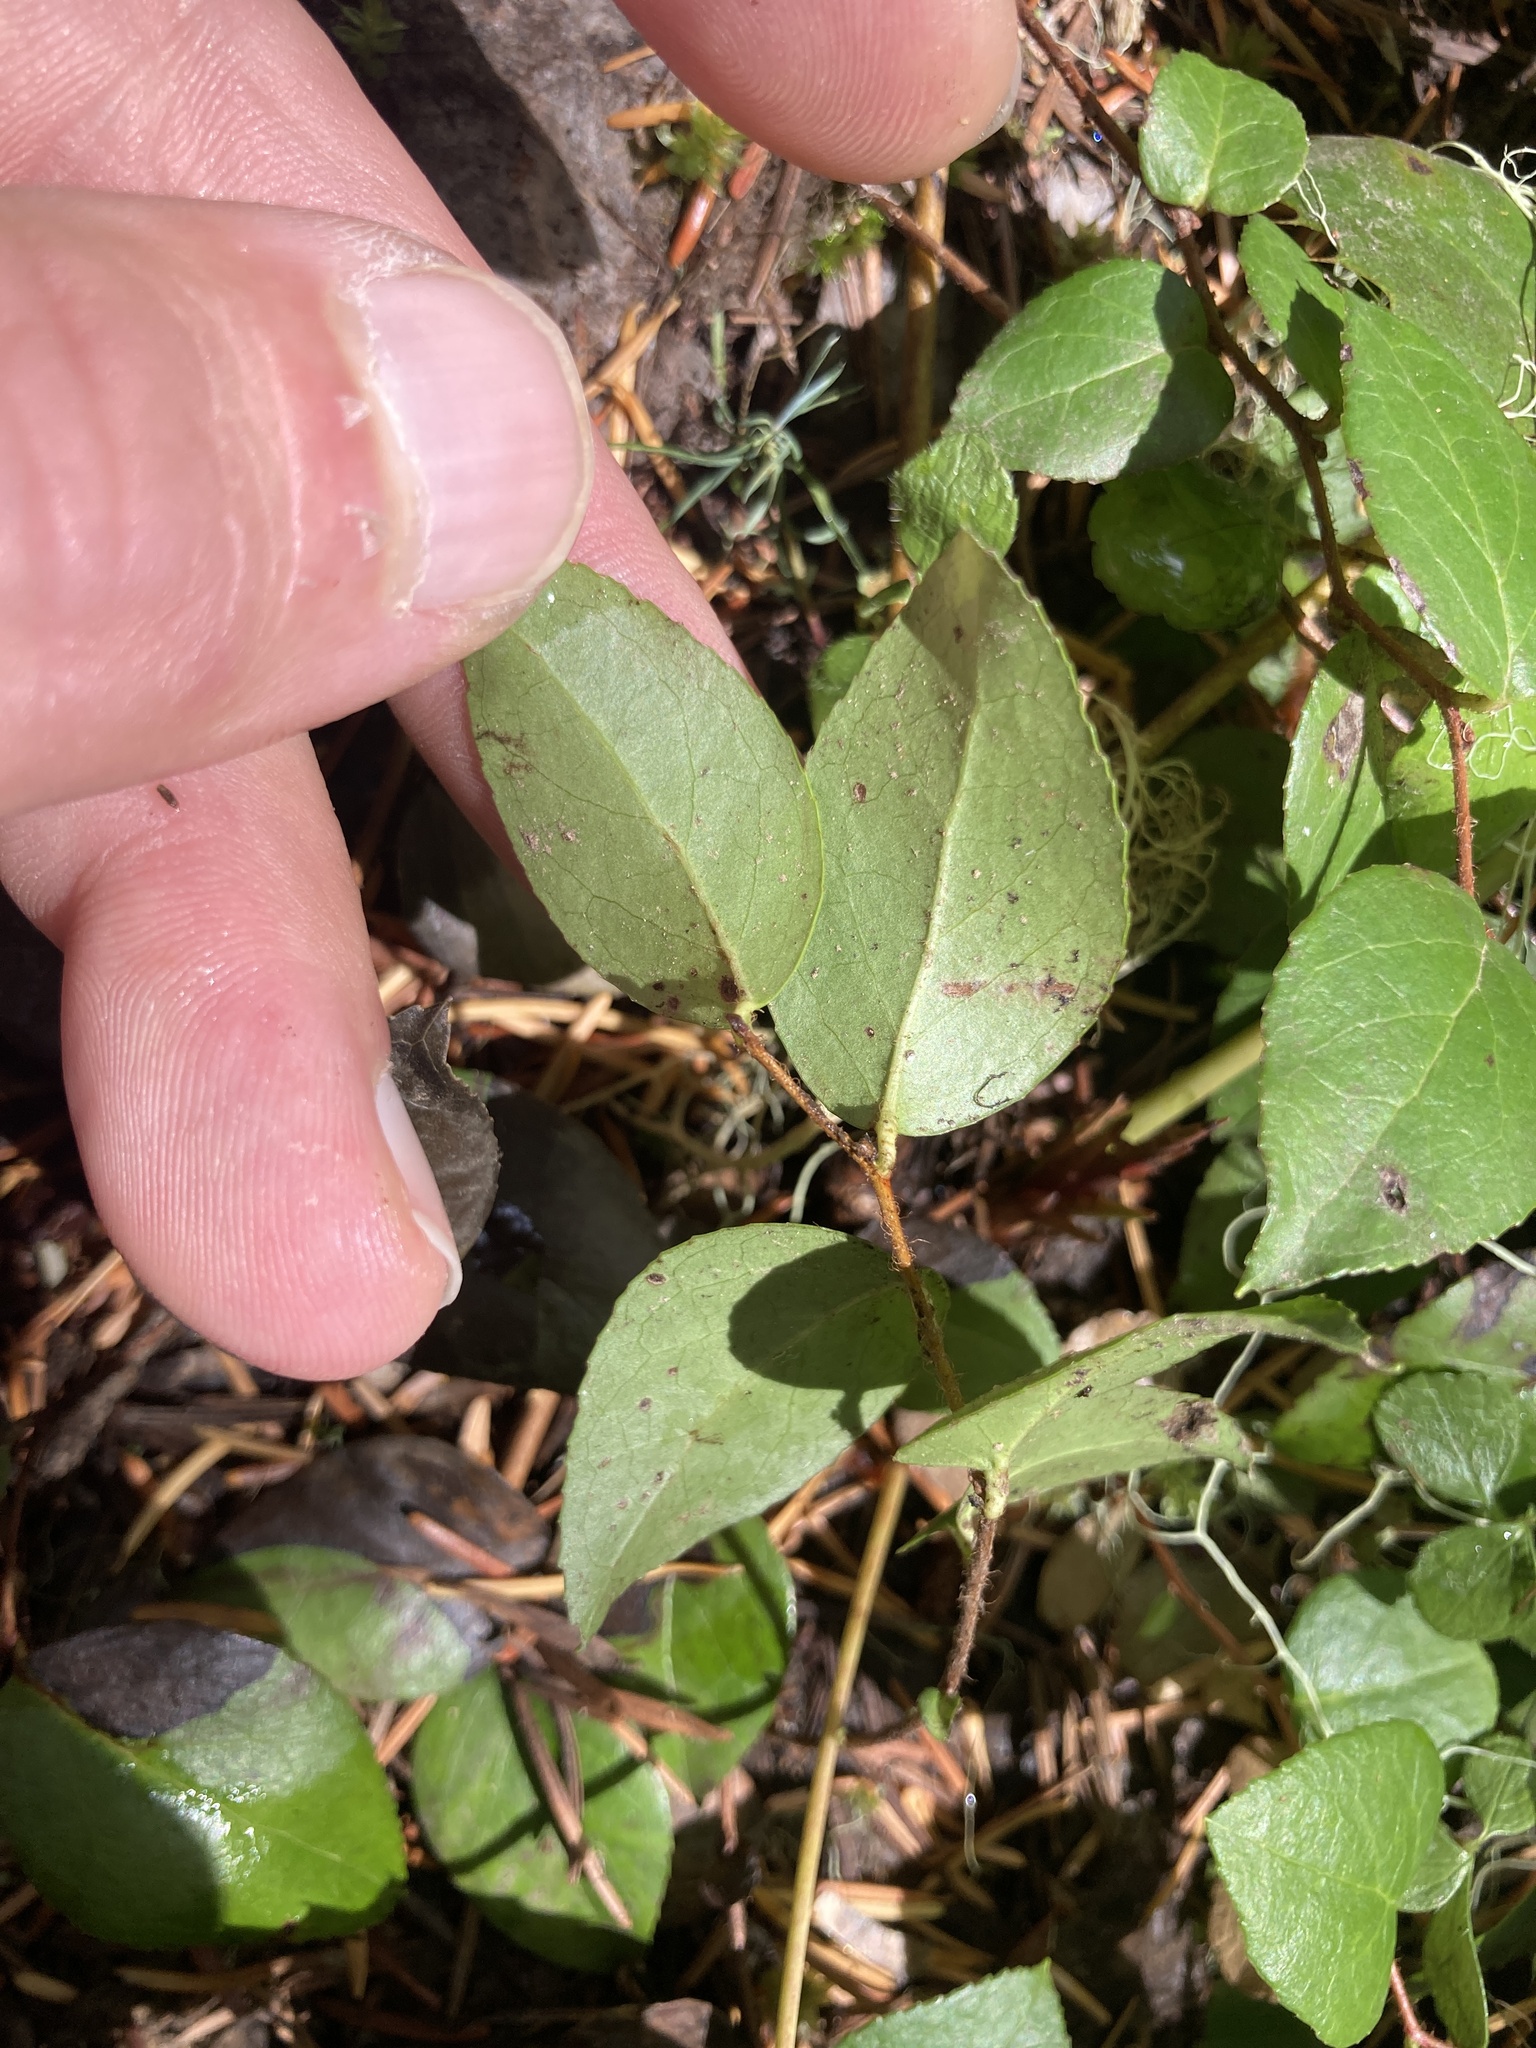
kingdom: Plantae
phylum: Tracheophyta
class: Magnoliopsida
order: Ericales
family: Ericaceae
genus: Gaultheria
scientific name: Gaultheria ovatifolia
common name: Oregon wintergreen
